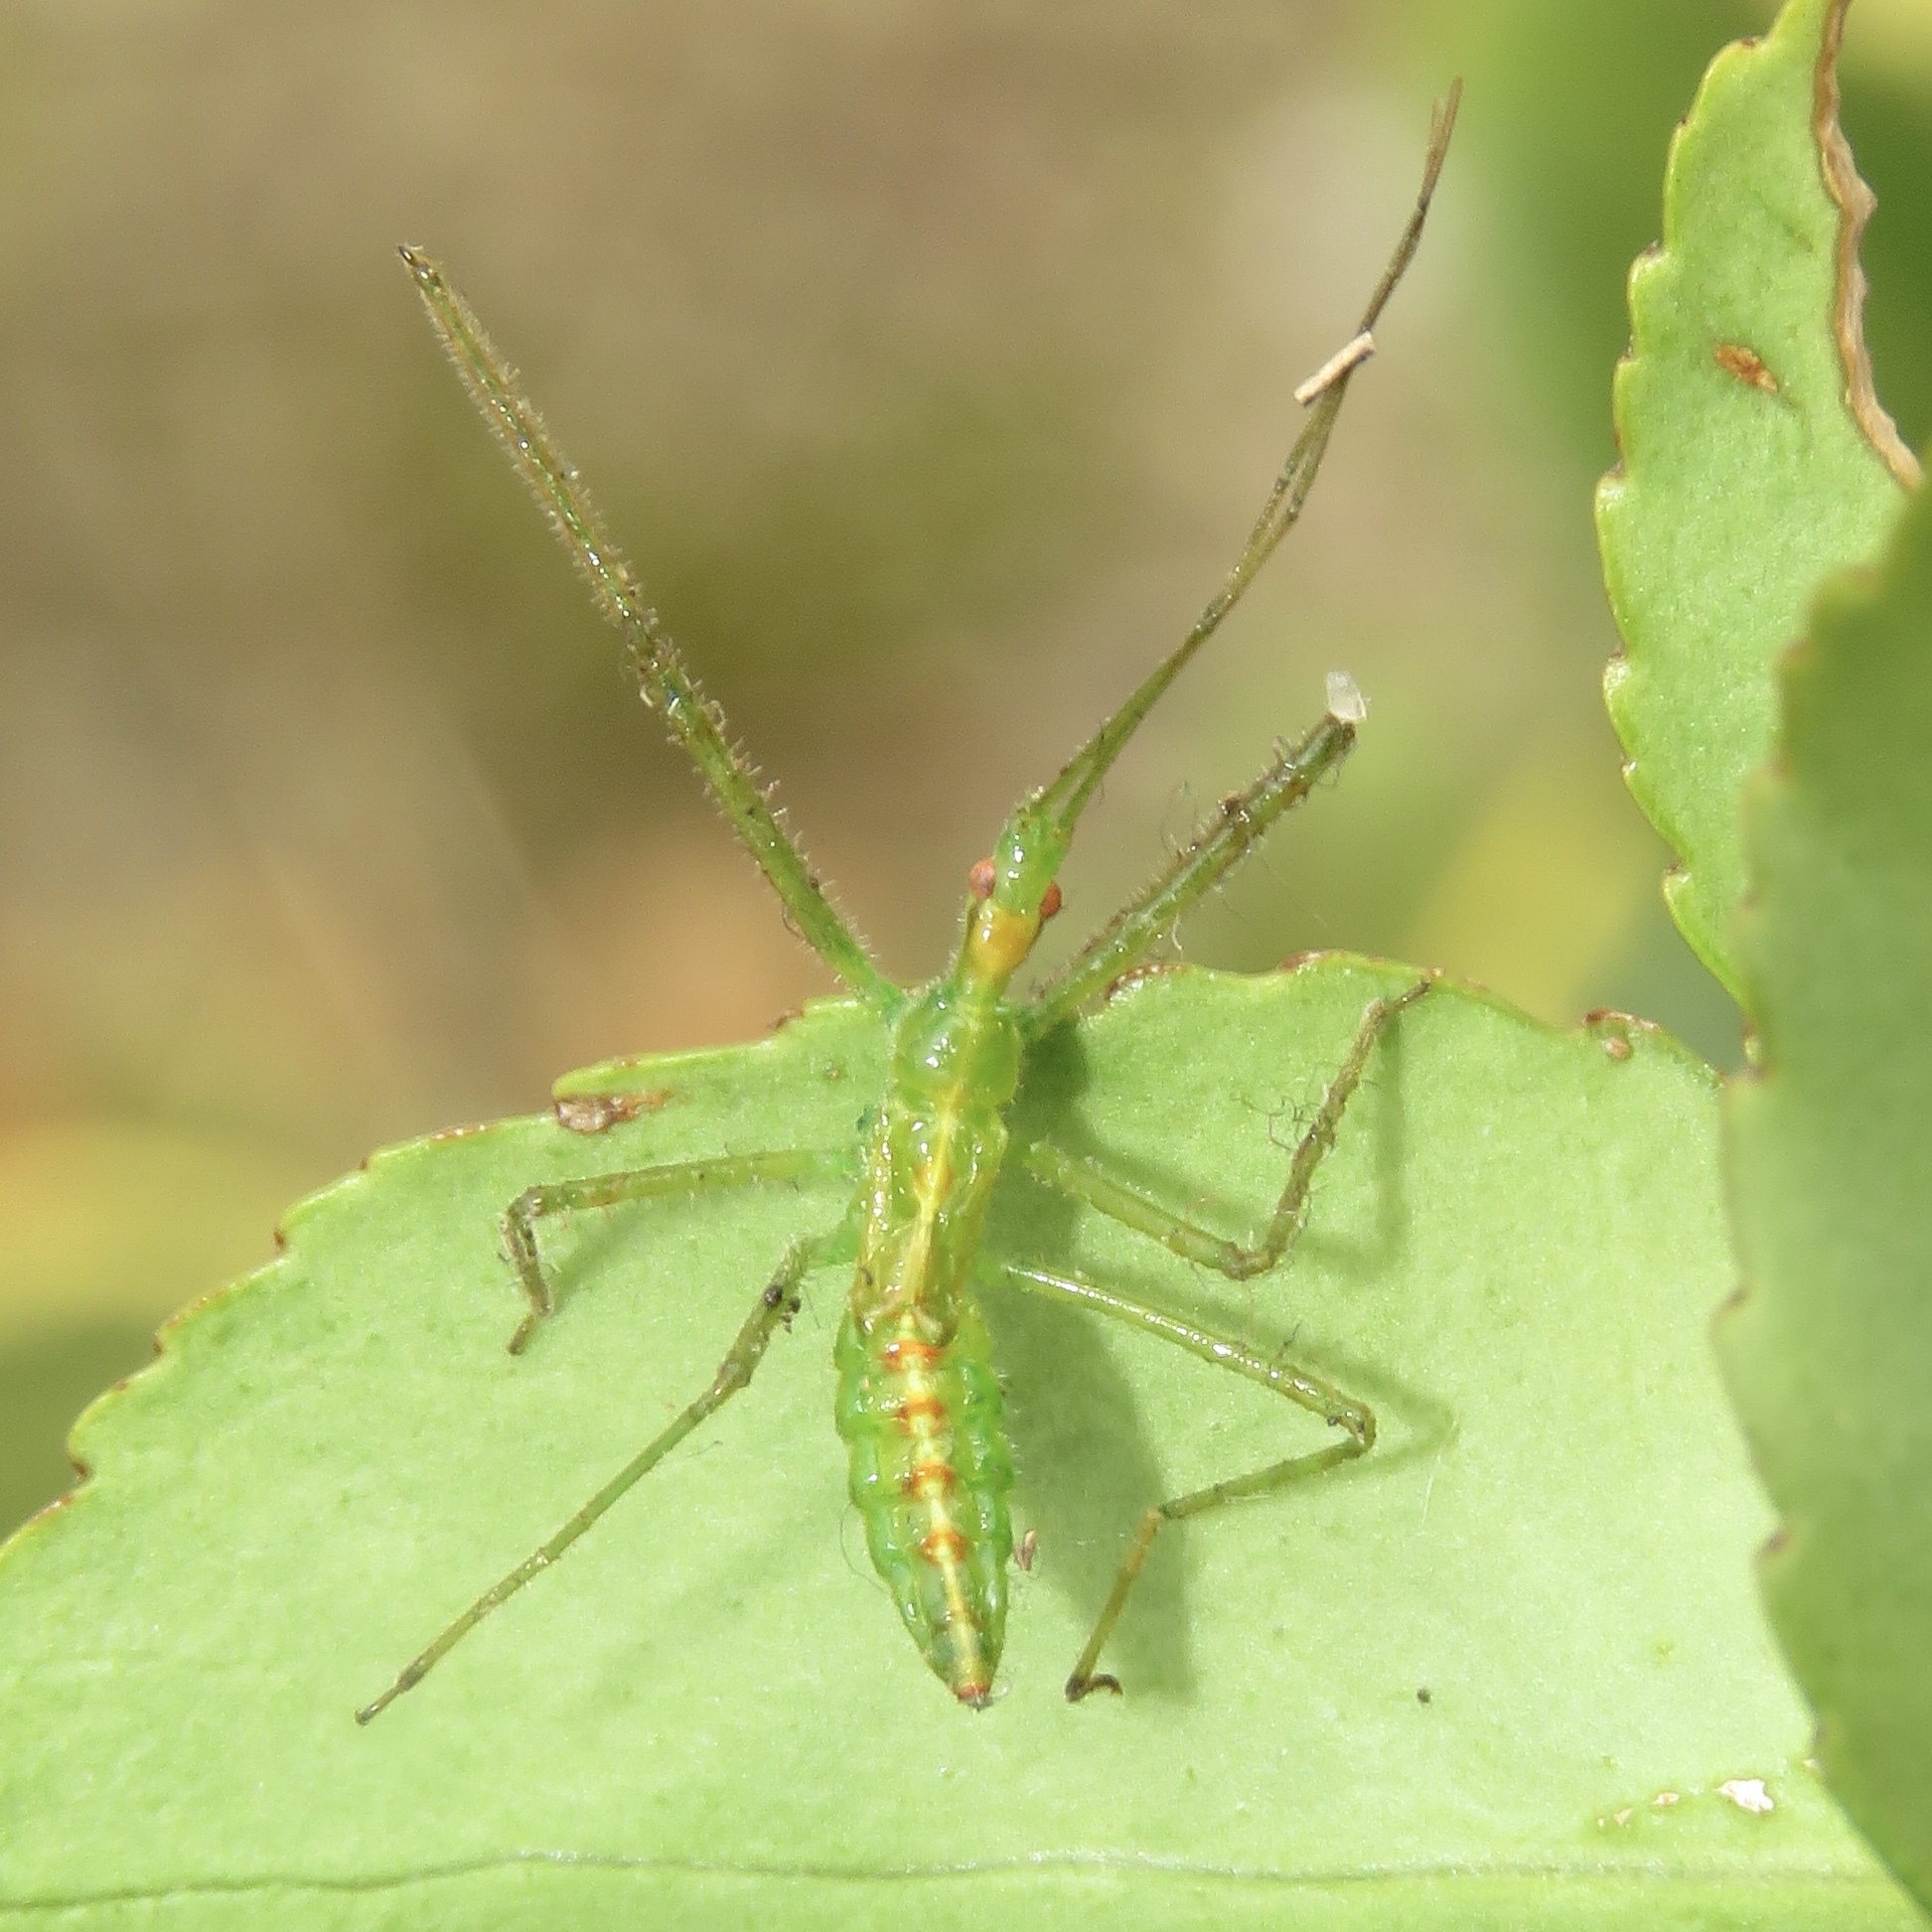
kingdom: Animalia
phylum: Arthropoda
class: Insecta
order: Hemiptera
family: Reduviidae
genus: Zelus
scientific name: Zelus luridus
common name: Pale green assassin bug
